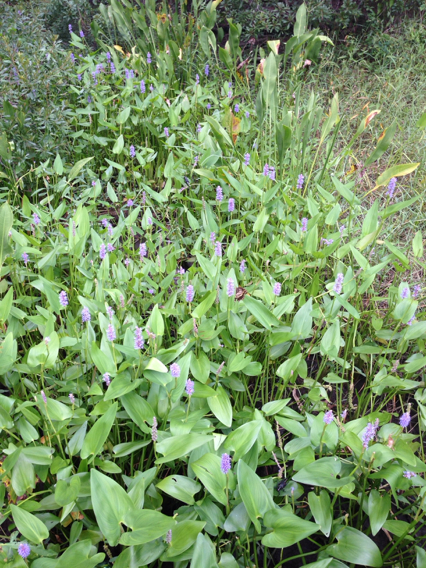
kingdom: Plantae
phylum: Tracheophyta
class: Liliopsida
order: Commelinales
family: Pontederiaceae
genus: Pontederia
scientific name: Pontederia cordata
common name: Pickerelweed
